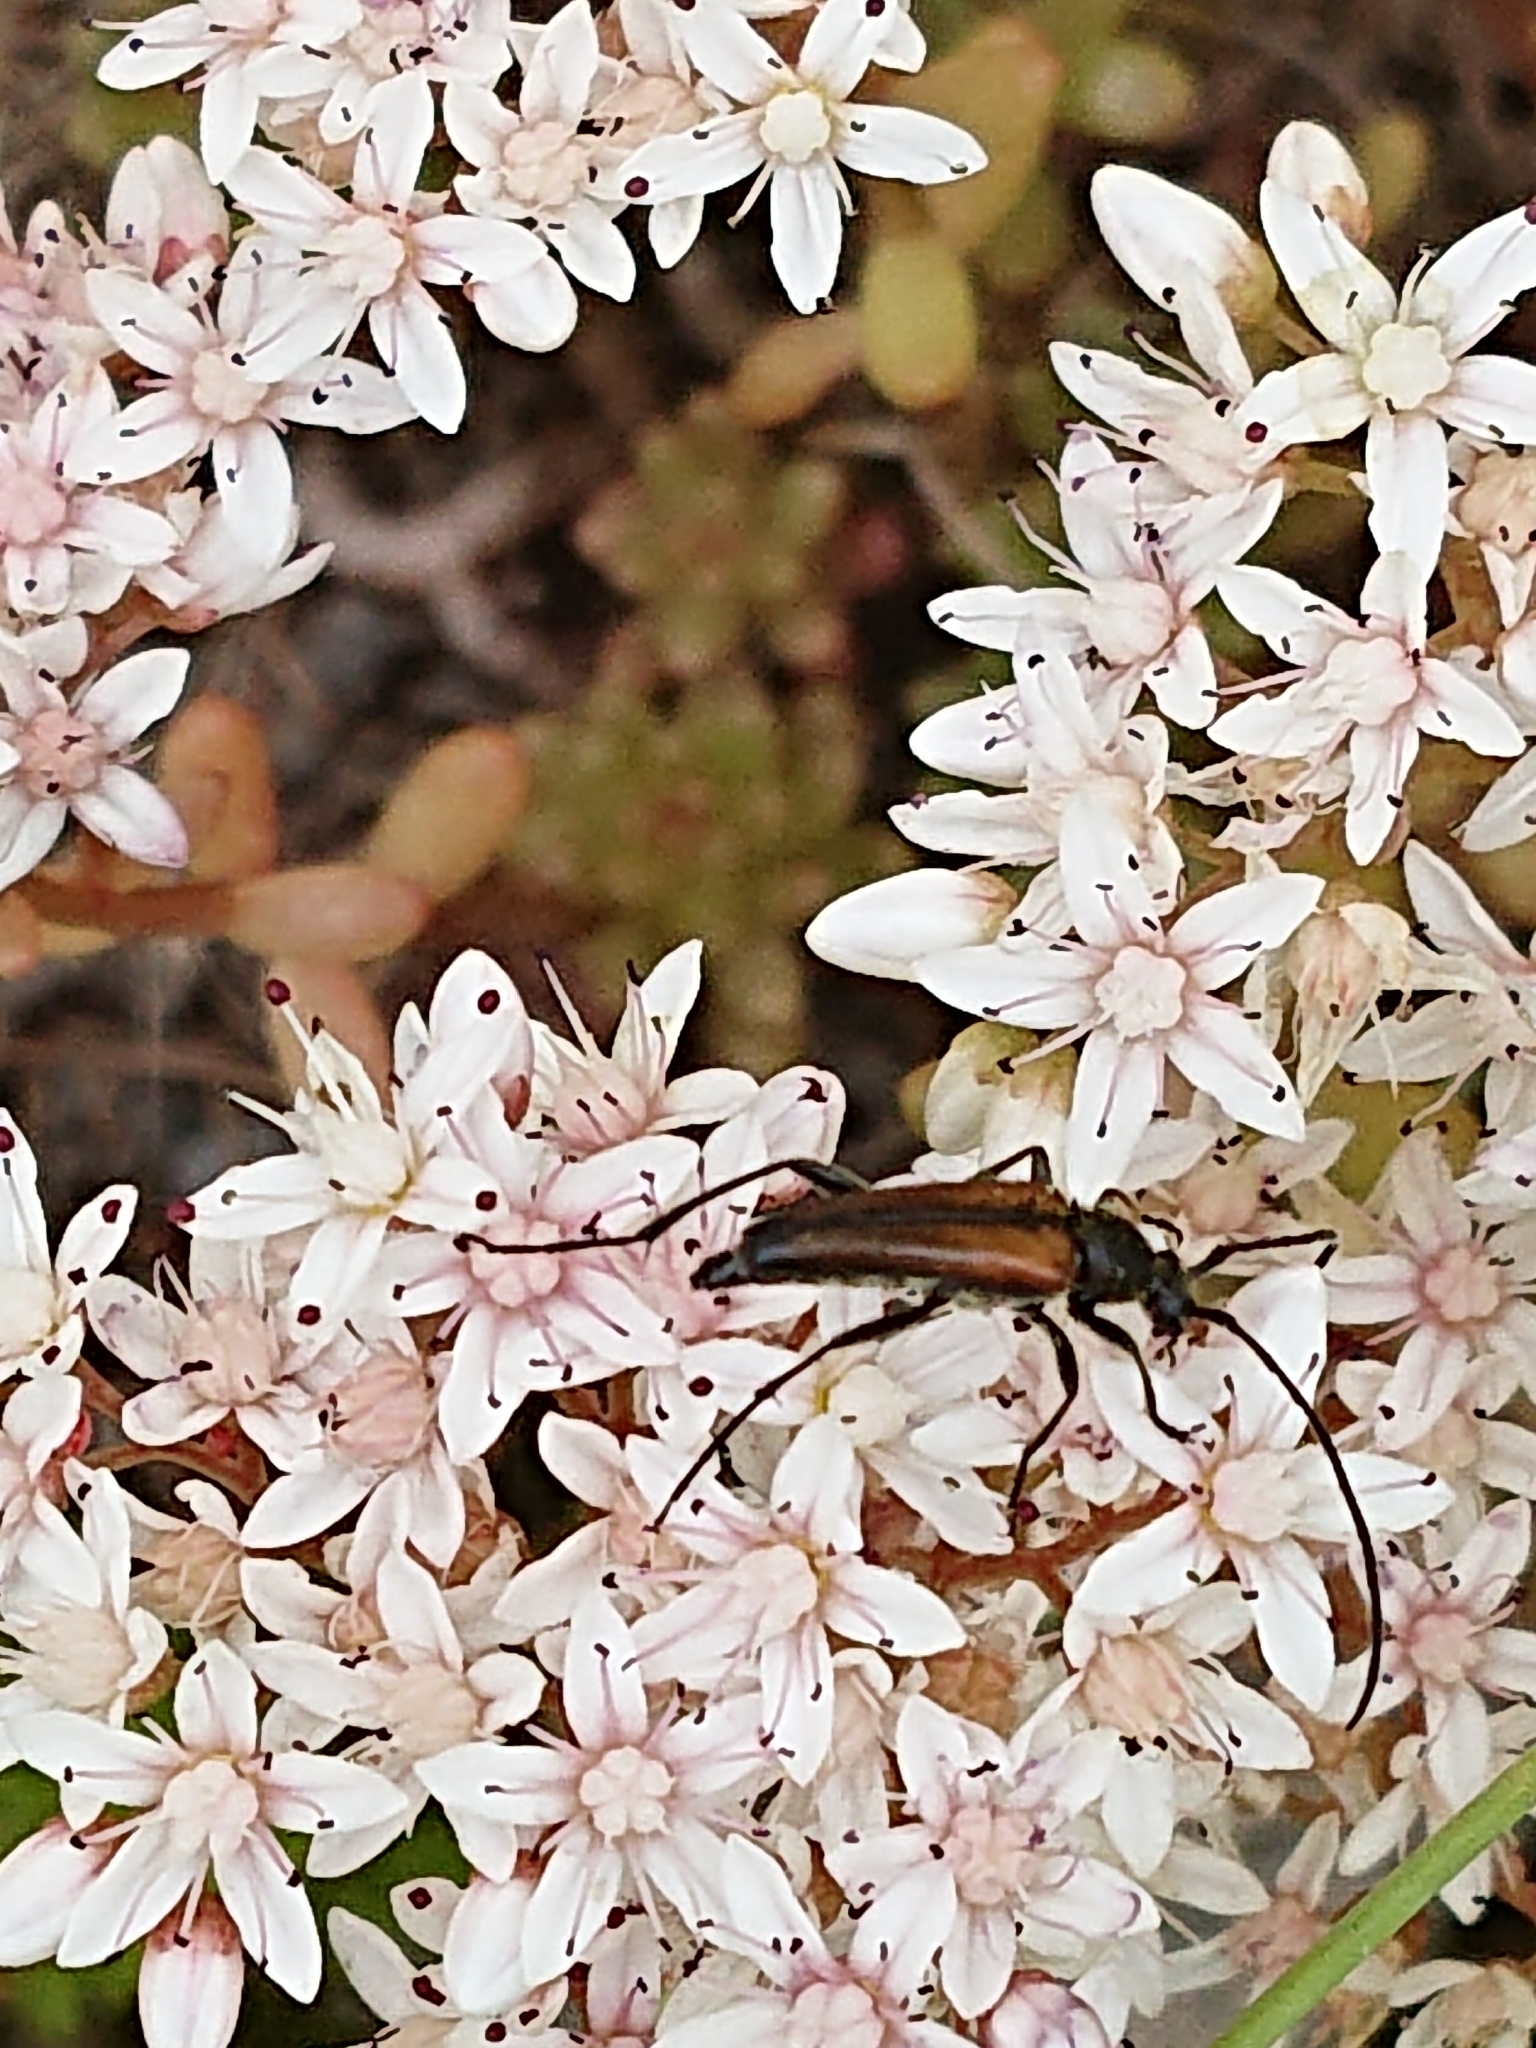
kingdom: Animalia
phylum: Arthropoda
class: Insecta
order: Coleoptera
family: Cerambycidae
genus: Stenurella
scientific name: Stenurella melanura
